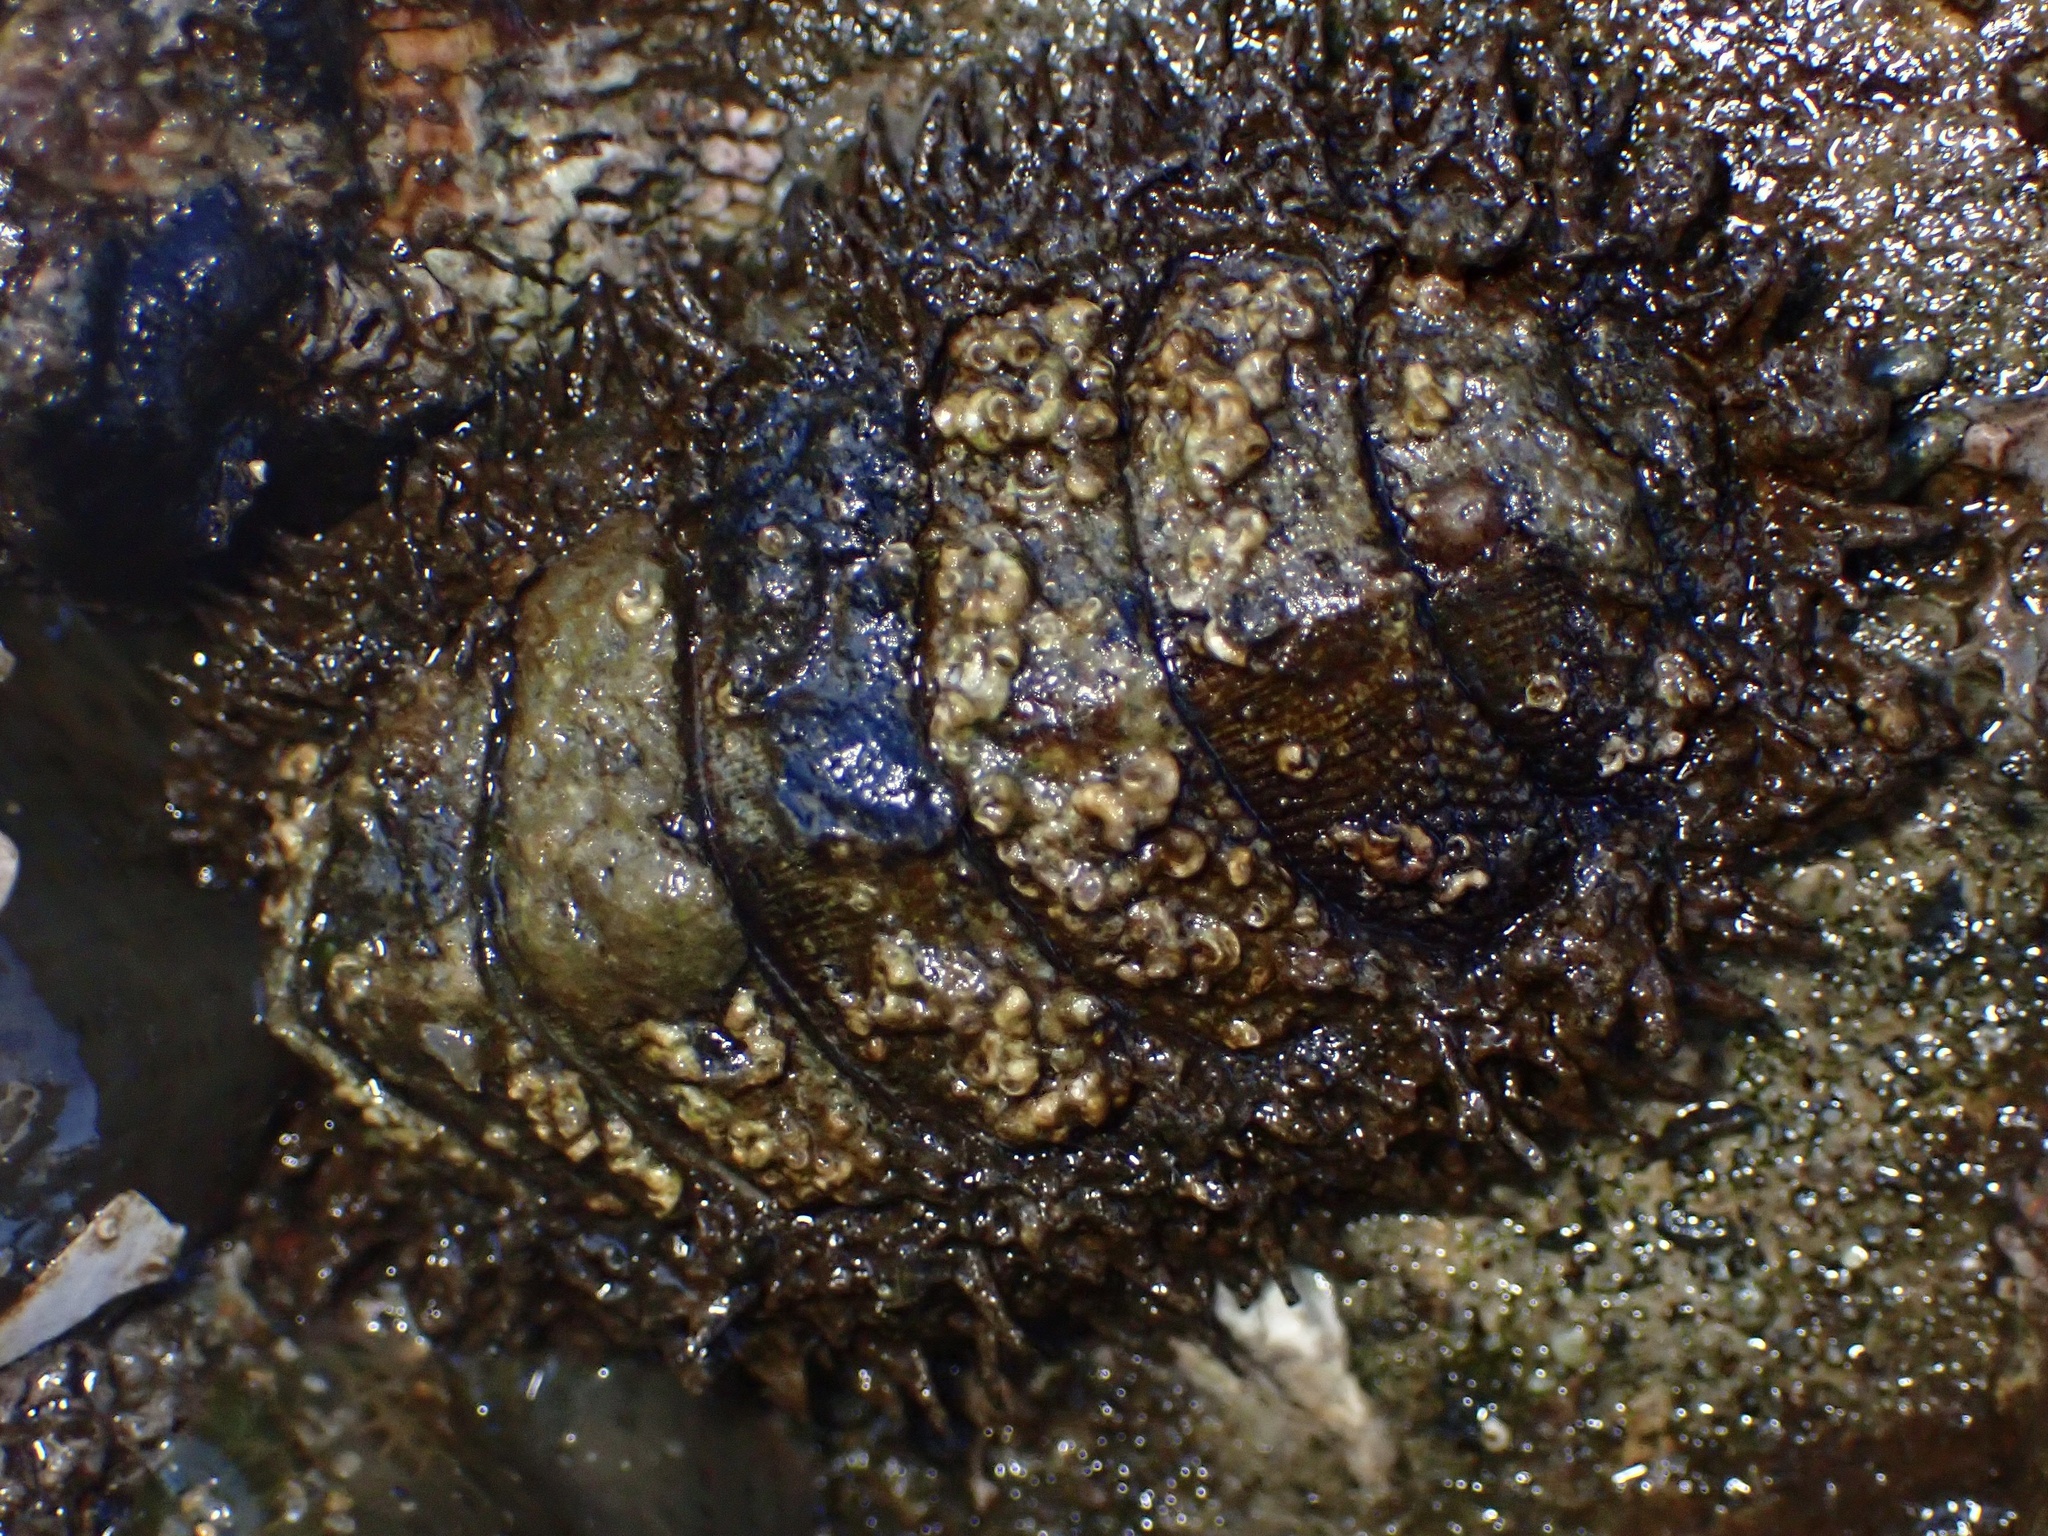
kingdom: Animalia
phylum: Mollusca
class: Polyplacophora
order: Chitonida
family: Mopaliidae
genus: Mopalia
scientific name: Mopalia muscosa
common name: Mossy chiton
